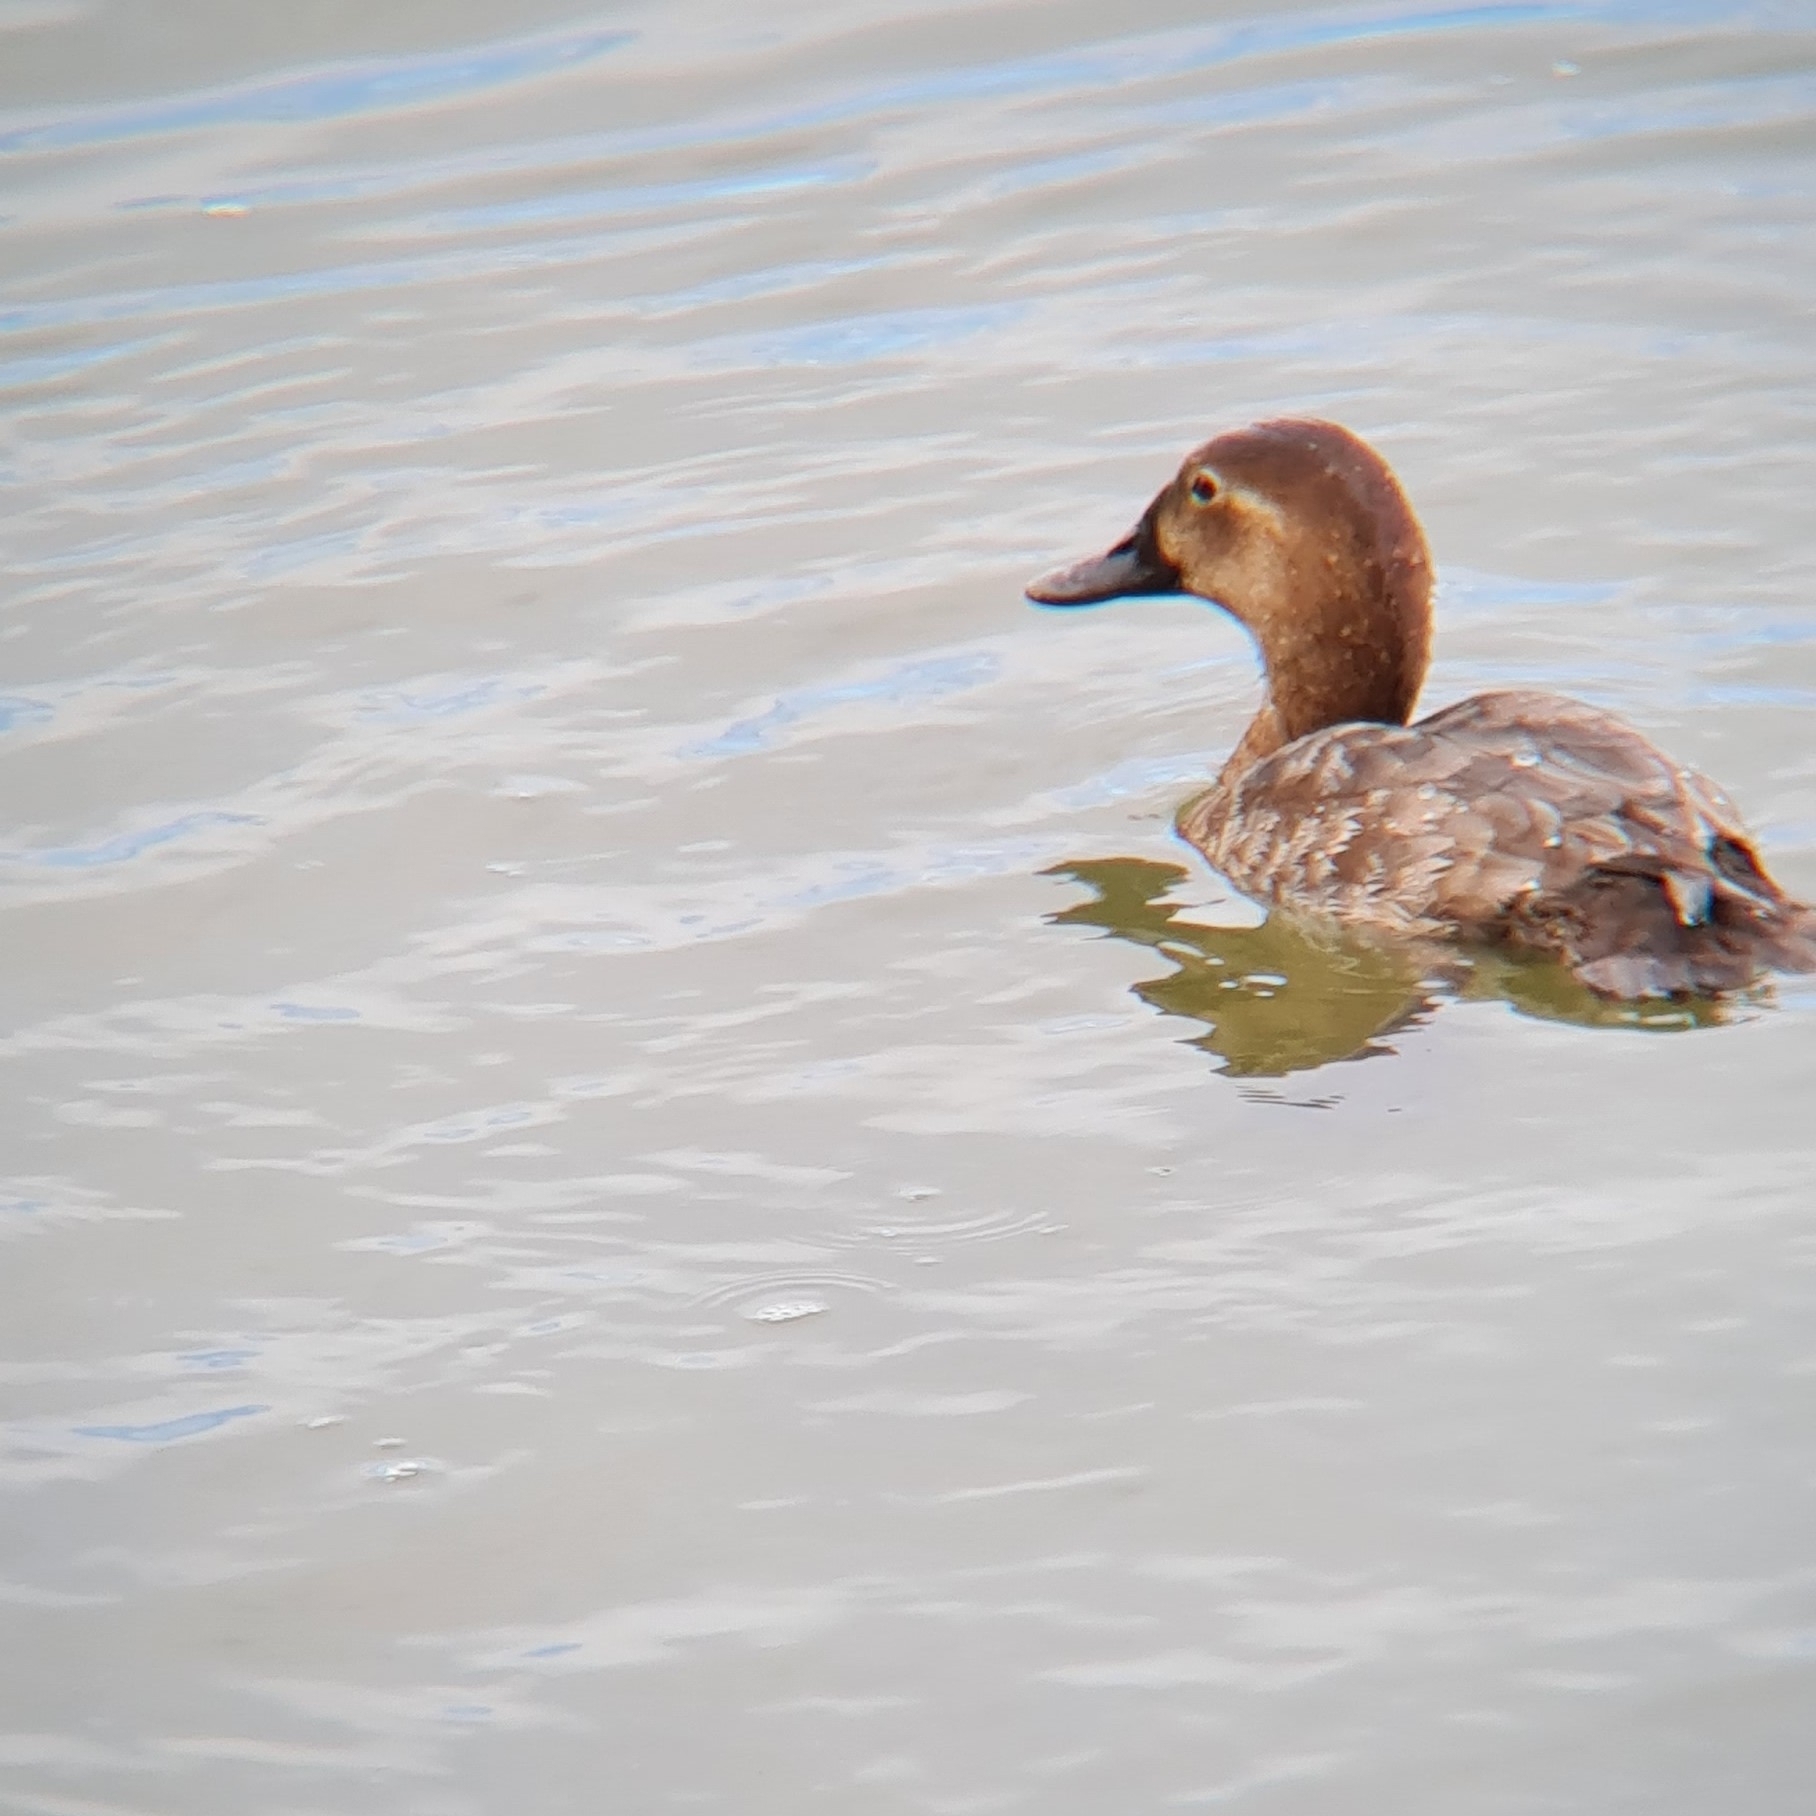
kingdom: Animalia
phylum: Chordata
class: Aves
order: Anseriformes
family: Anatidae
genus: Aythya
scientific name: Aythya ferina
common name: Common pochard
